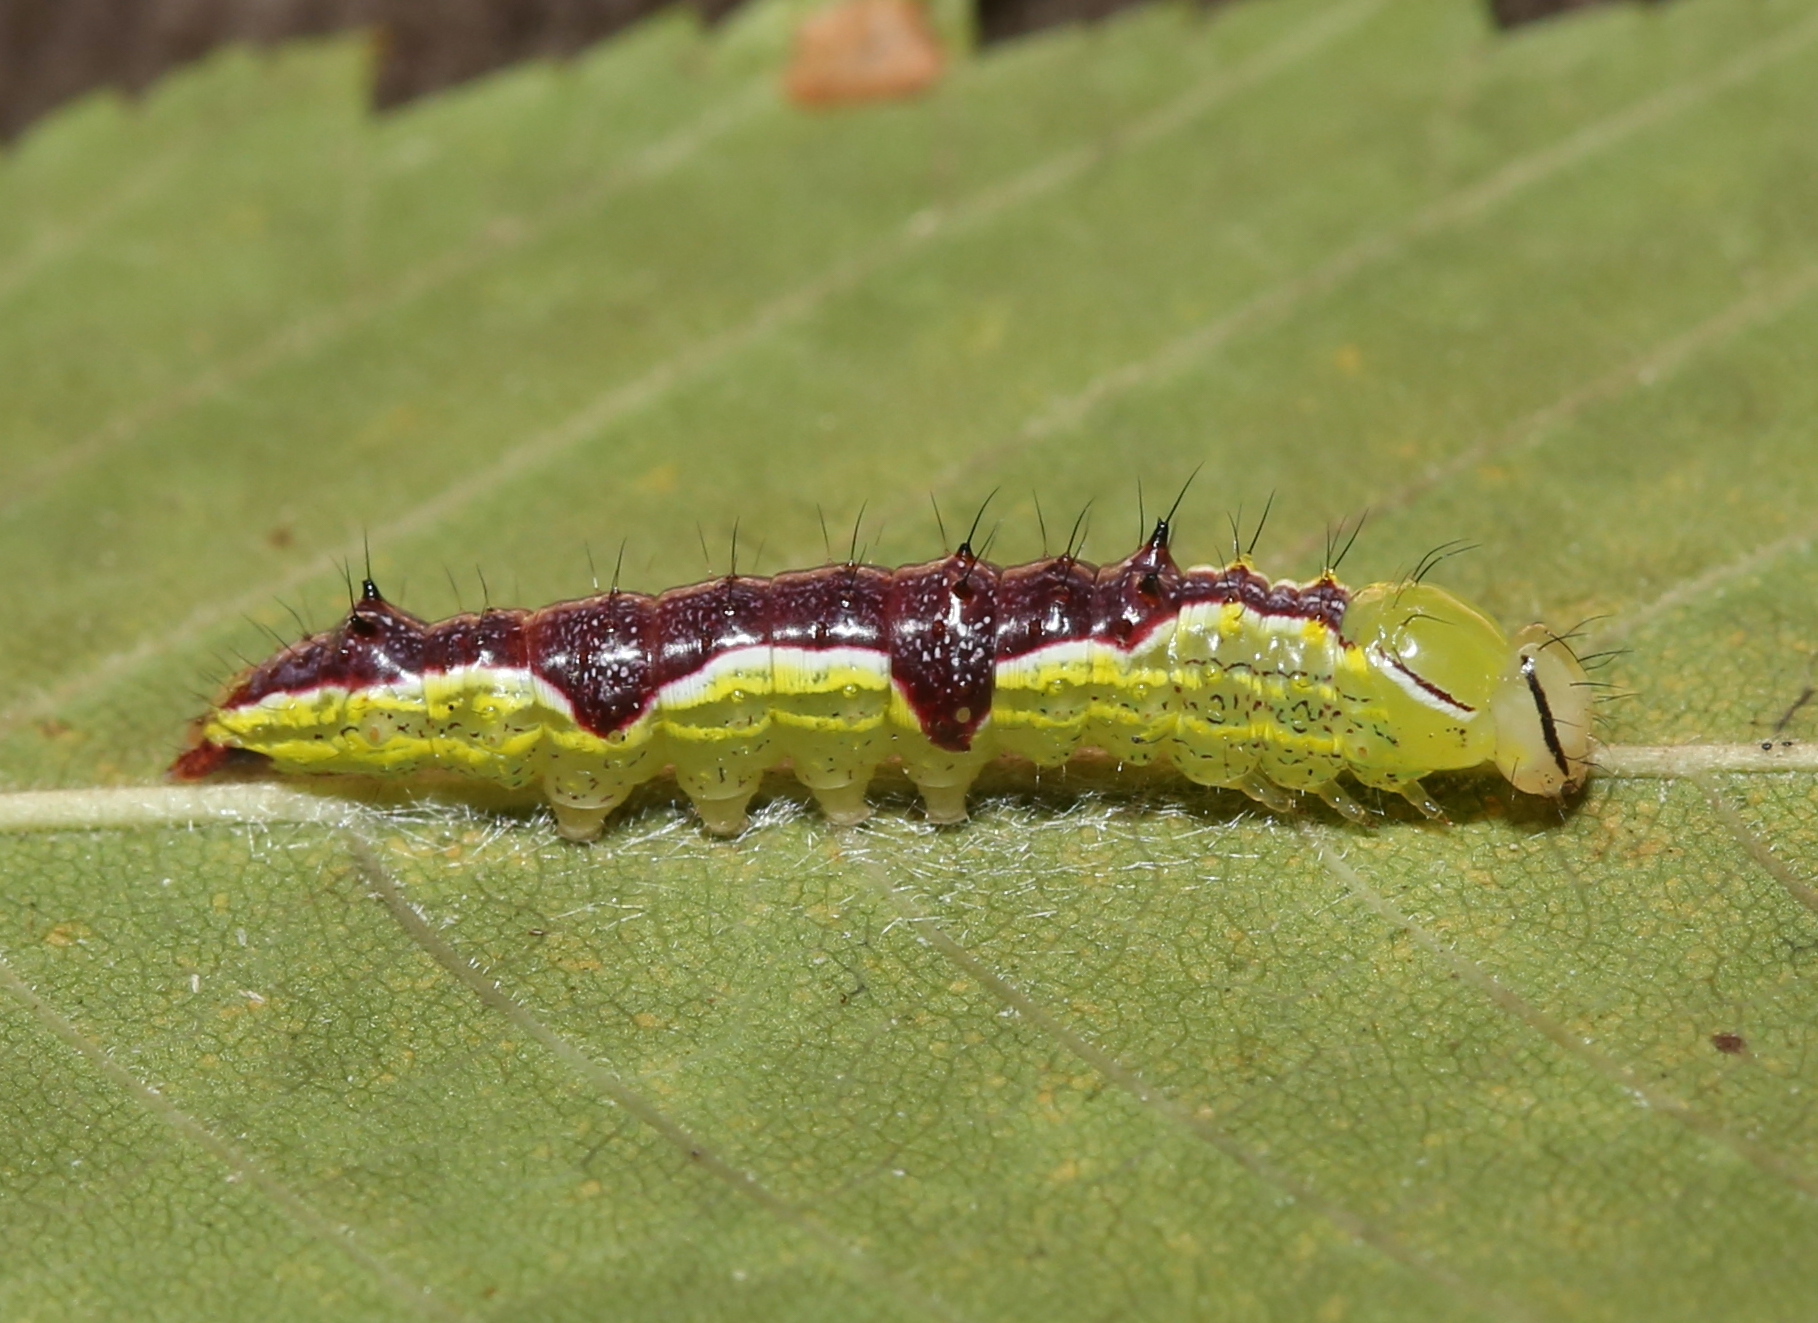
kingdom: Animalia
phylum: Arthropoda
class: Insecta
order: Lepidoptera
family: Notodontidae
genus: Lochmaeus
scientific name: Lochmaeus bilineata
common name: Double-lined prominent
